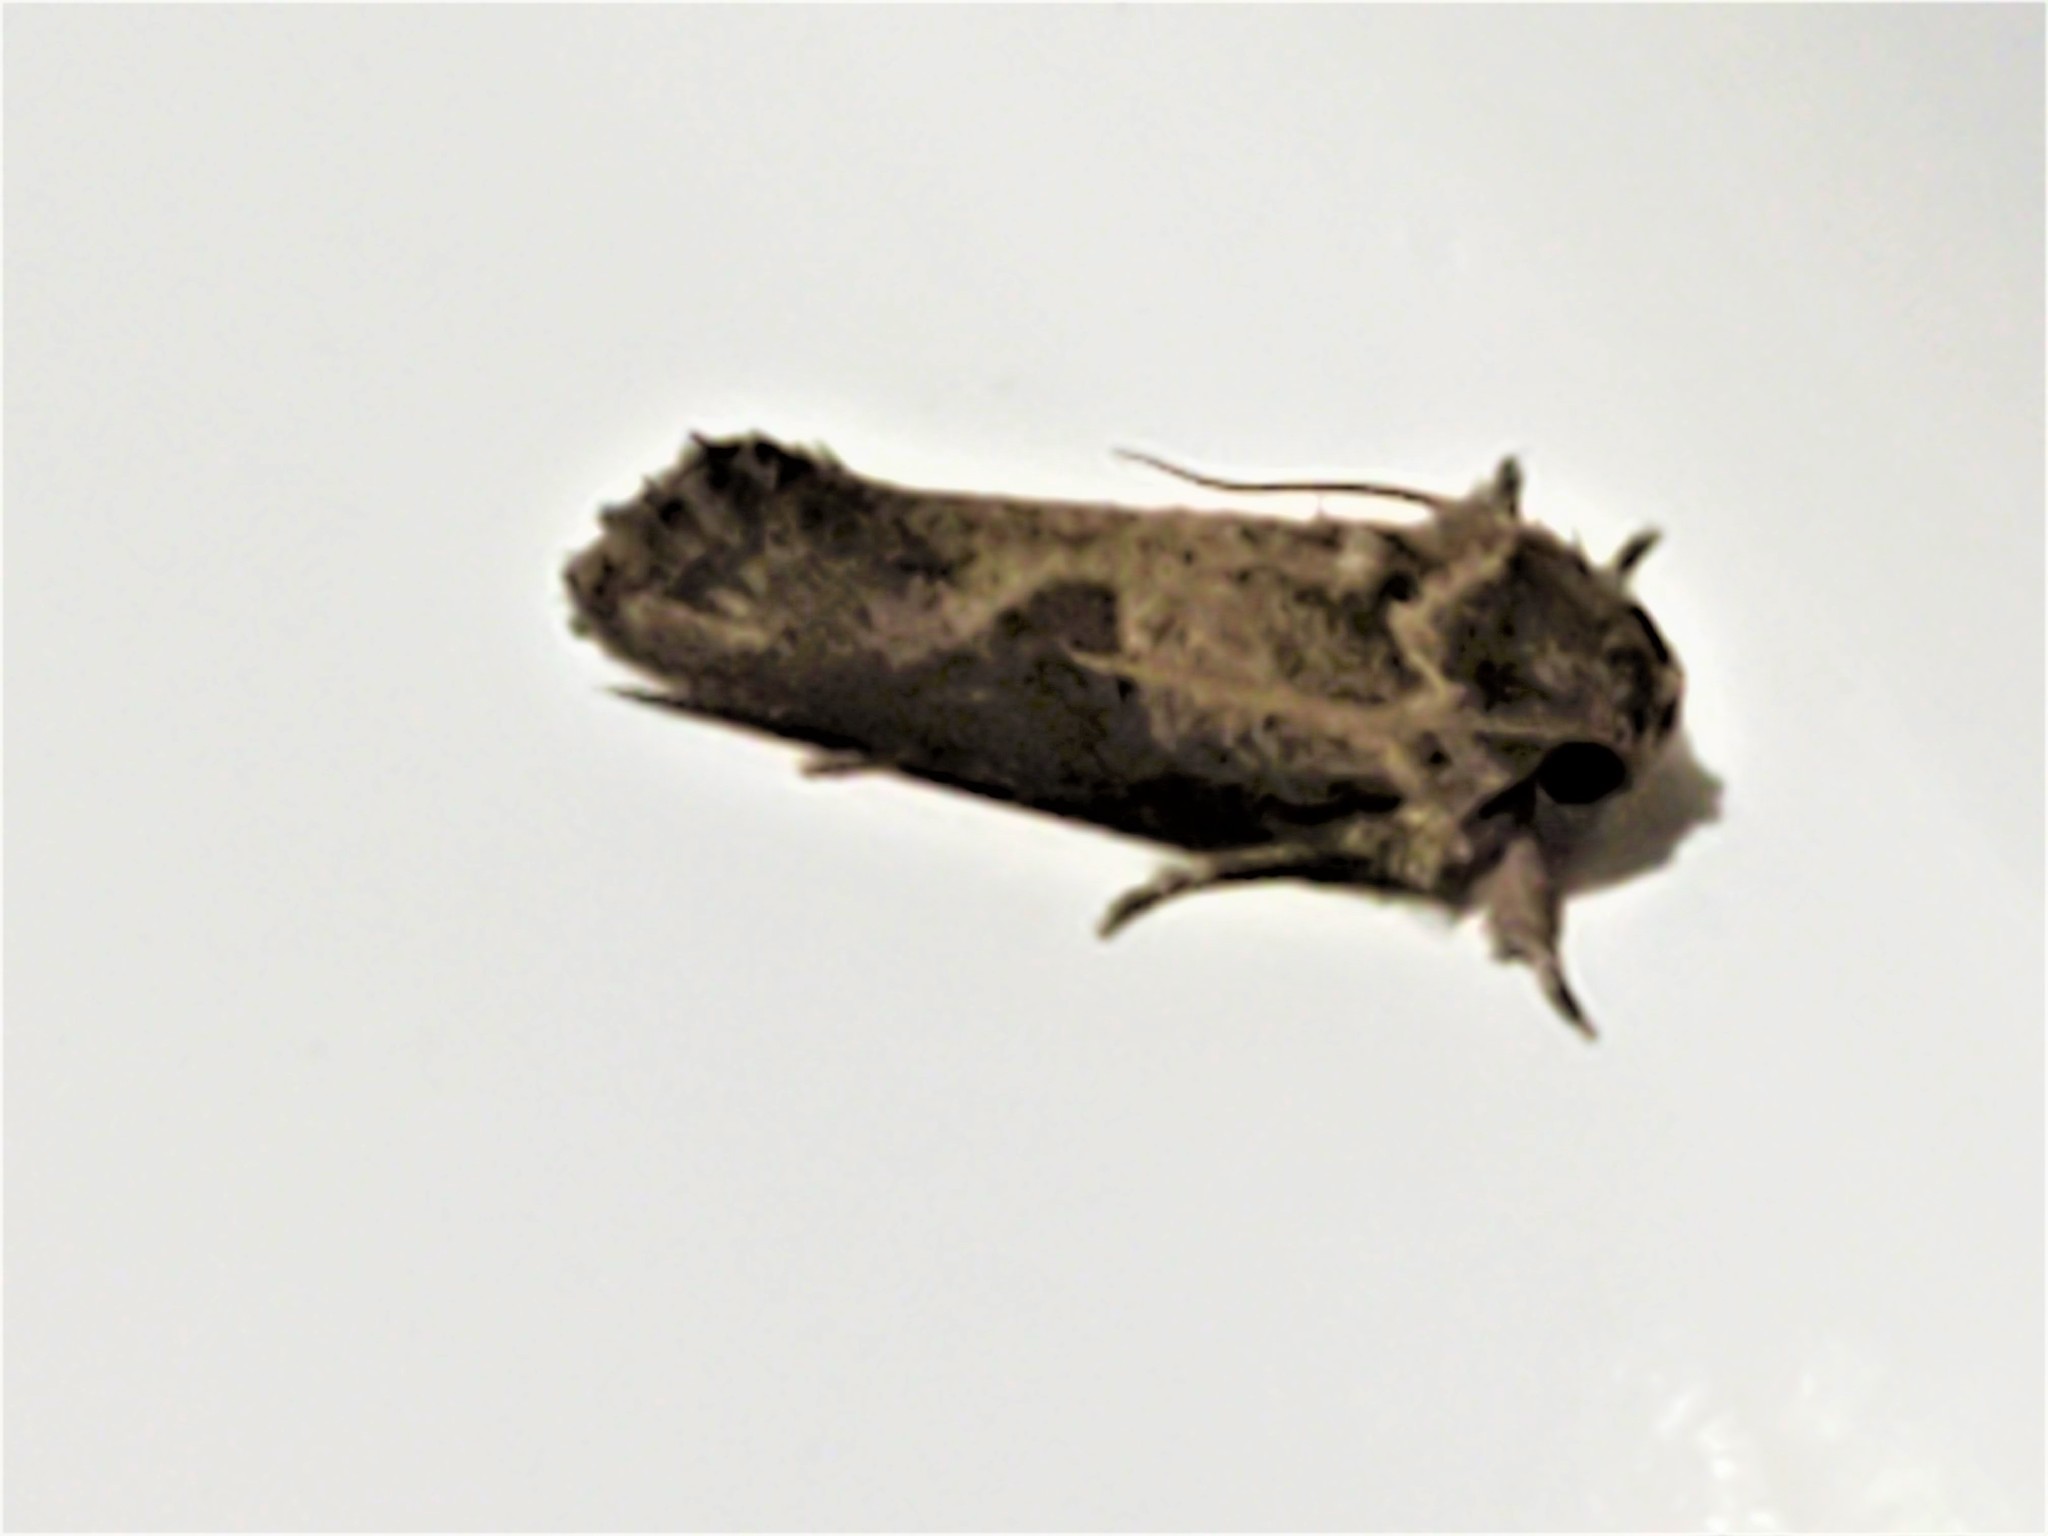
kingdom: Animalia
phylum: Arthropoda
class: Insecta
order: Lepidoptera
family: Tineidae
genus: Acrolophus
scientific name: Acrolophus piger
